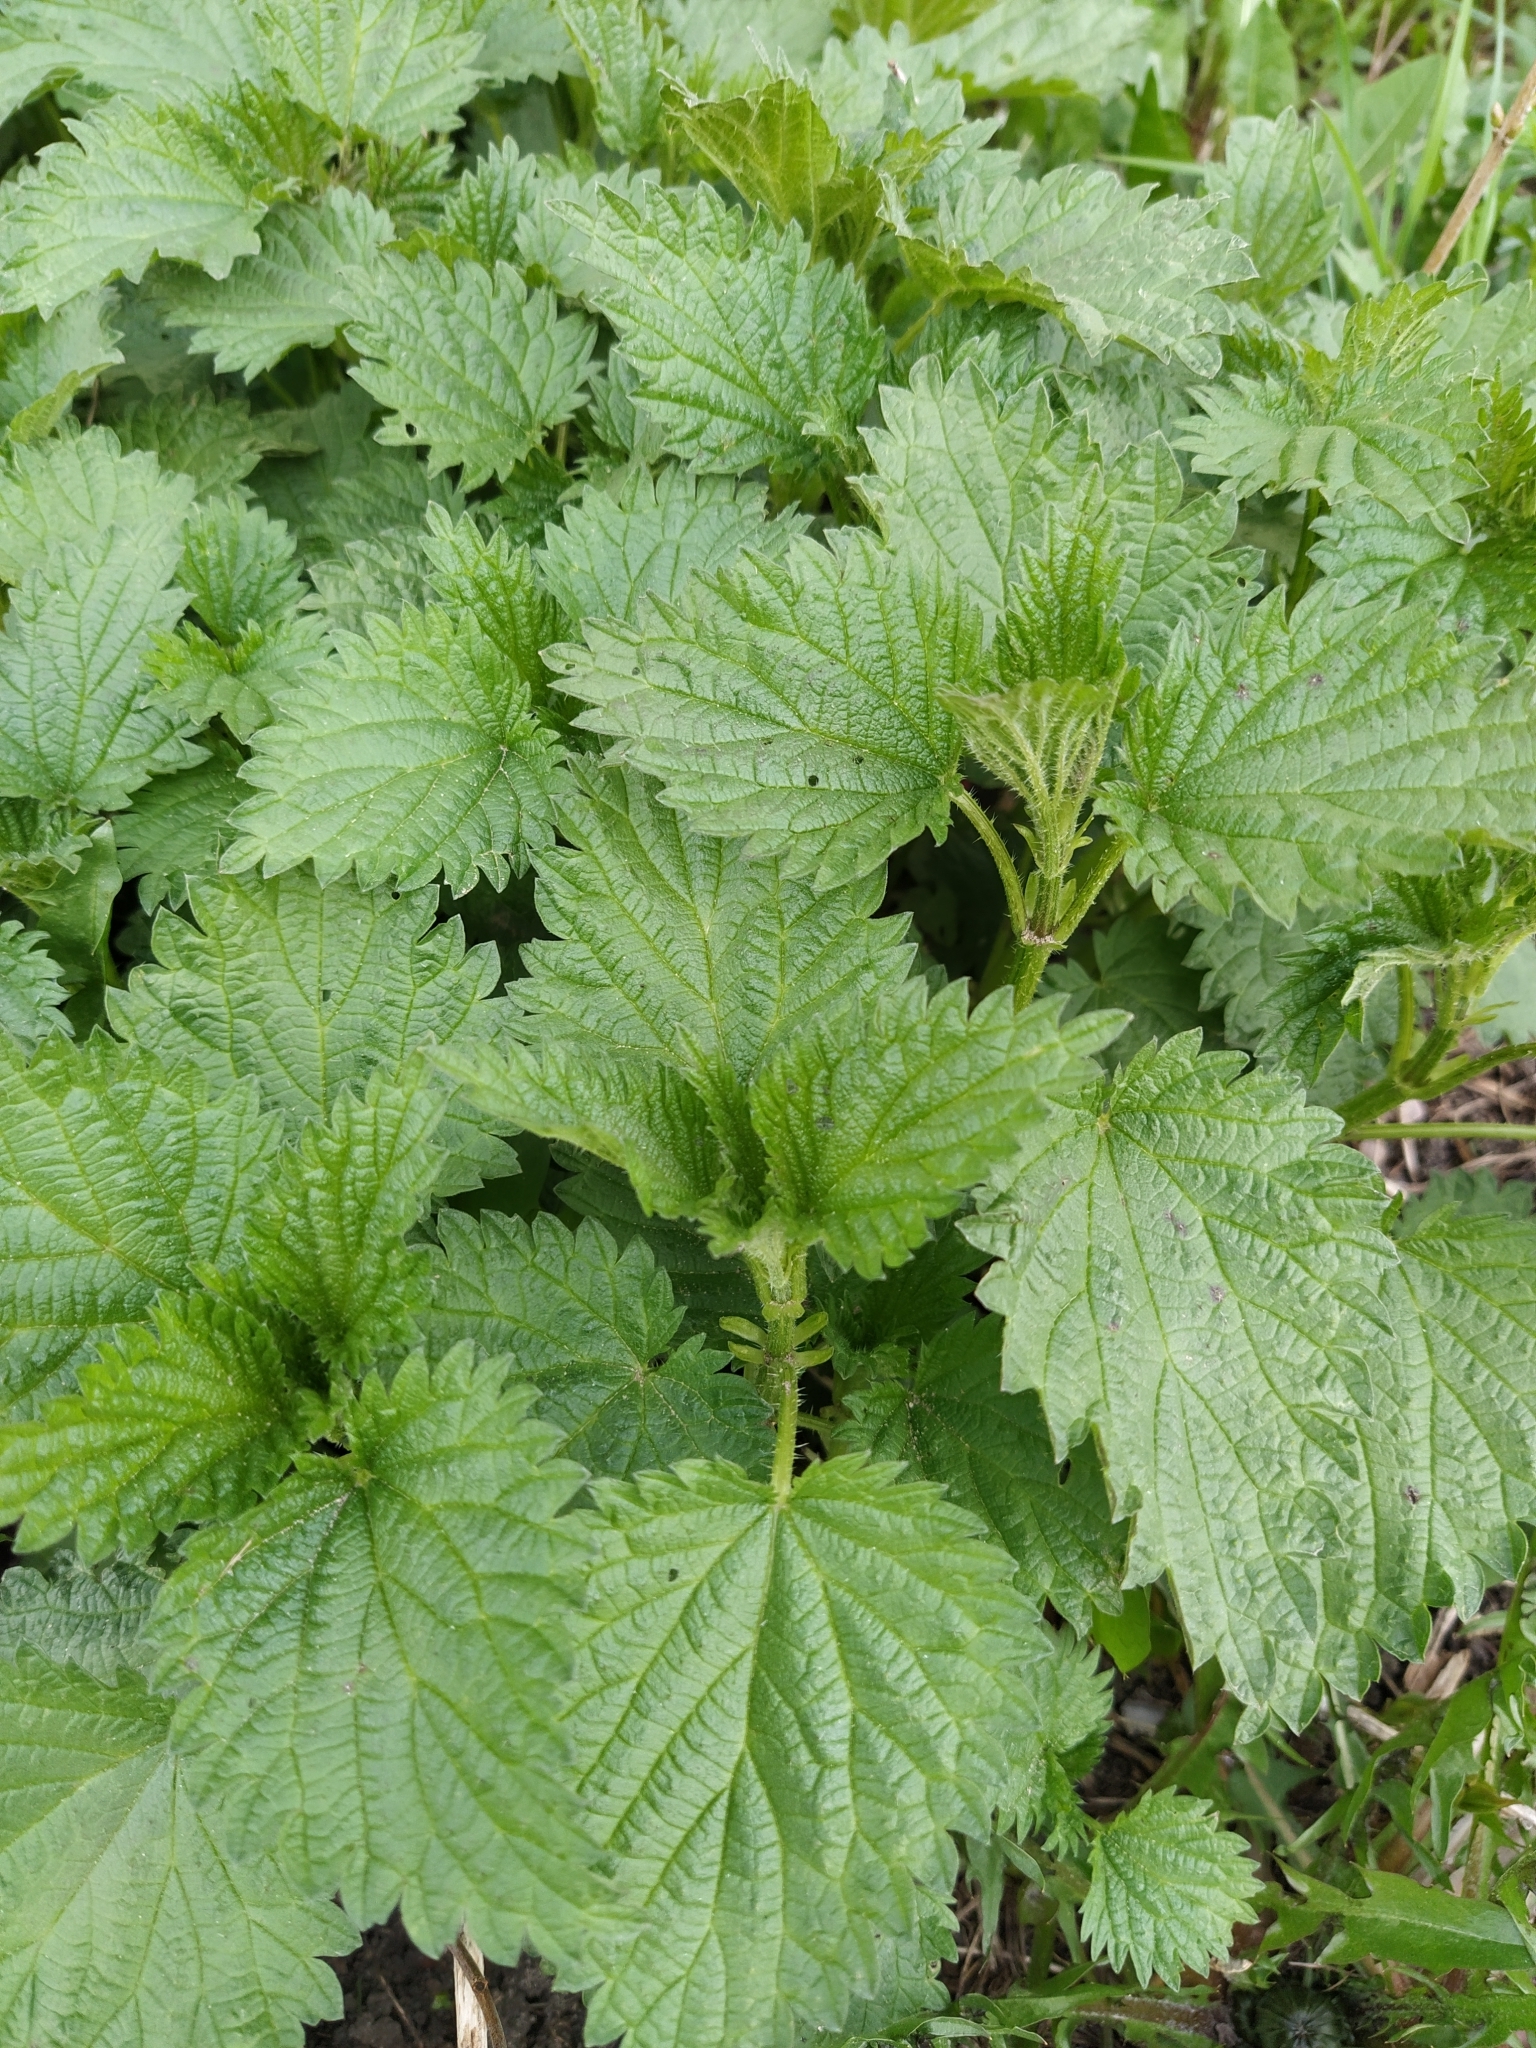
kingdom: Plantae
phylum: Tracheophyta
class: Magnoliopsida
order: Rosales
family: Urticaceae
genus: Urtica
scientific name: Urtica dioica
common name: Common nettle
